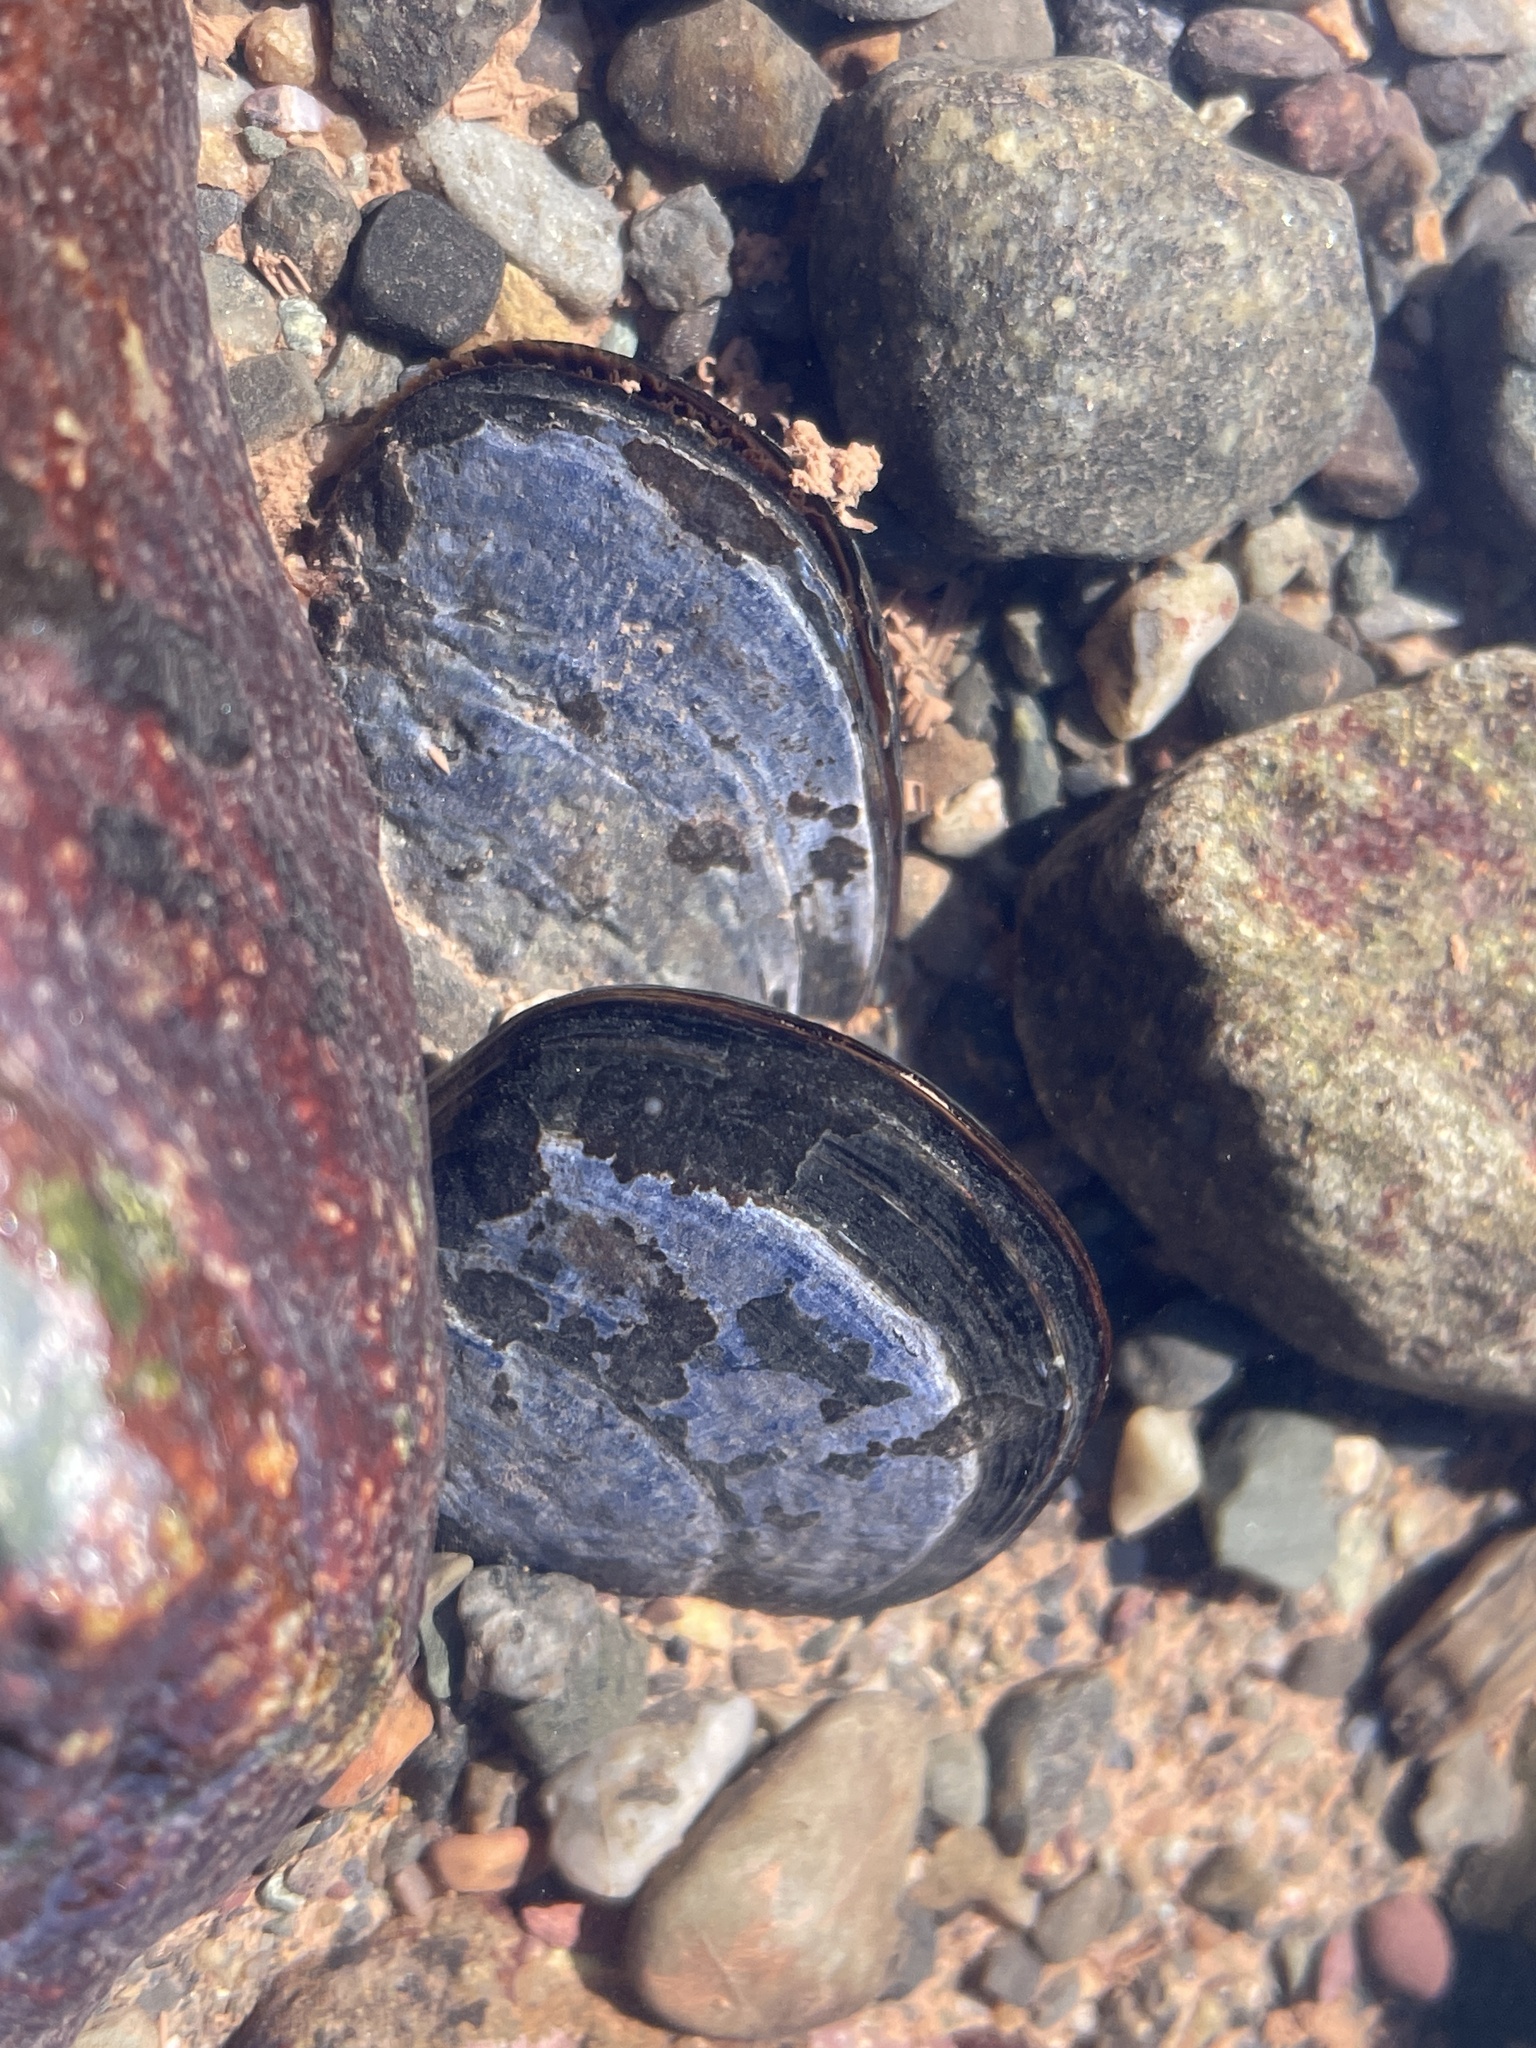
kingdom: Animalia
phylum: Mollusca
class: Bivalvia
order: Mytilida
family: Mytilidae
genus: Mytilus
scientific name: Mytilus
